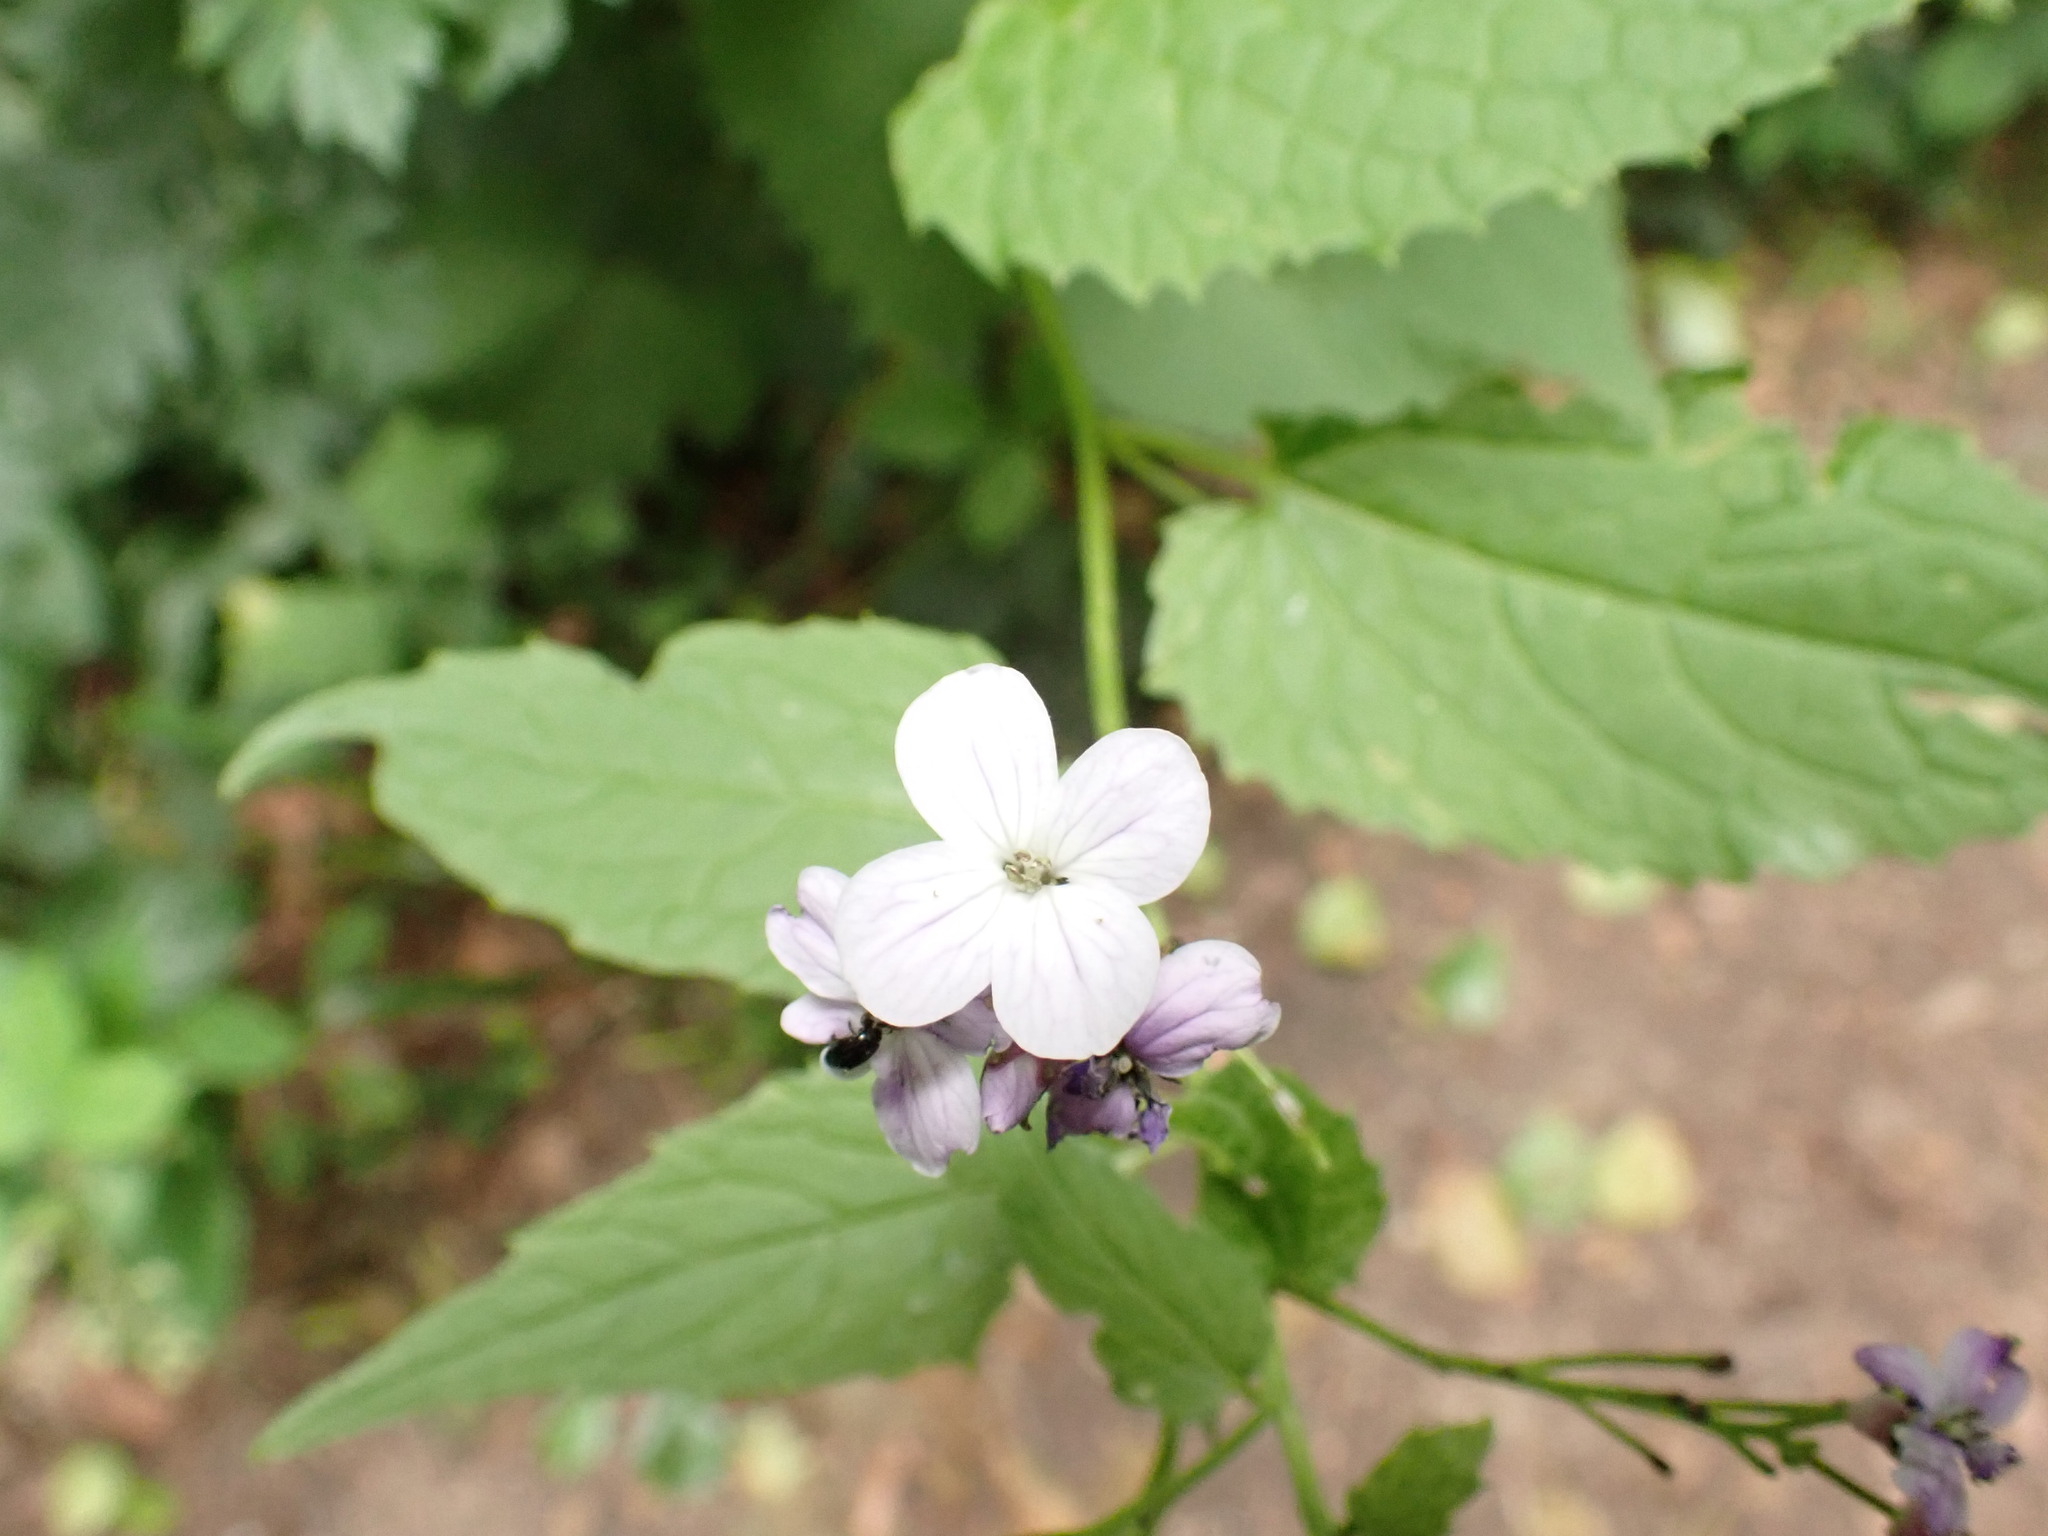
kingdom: Plantae
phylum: Tracheophyta
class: Magnoliopsida
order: Brassicales
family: Brassicaceae
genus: Lunaria
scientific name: Lunaria rediviva
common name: Perennial honesty
